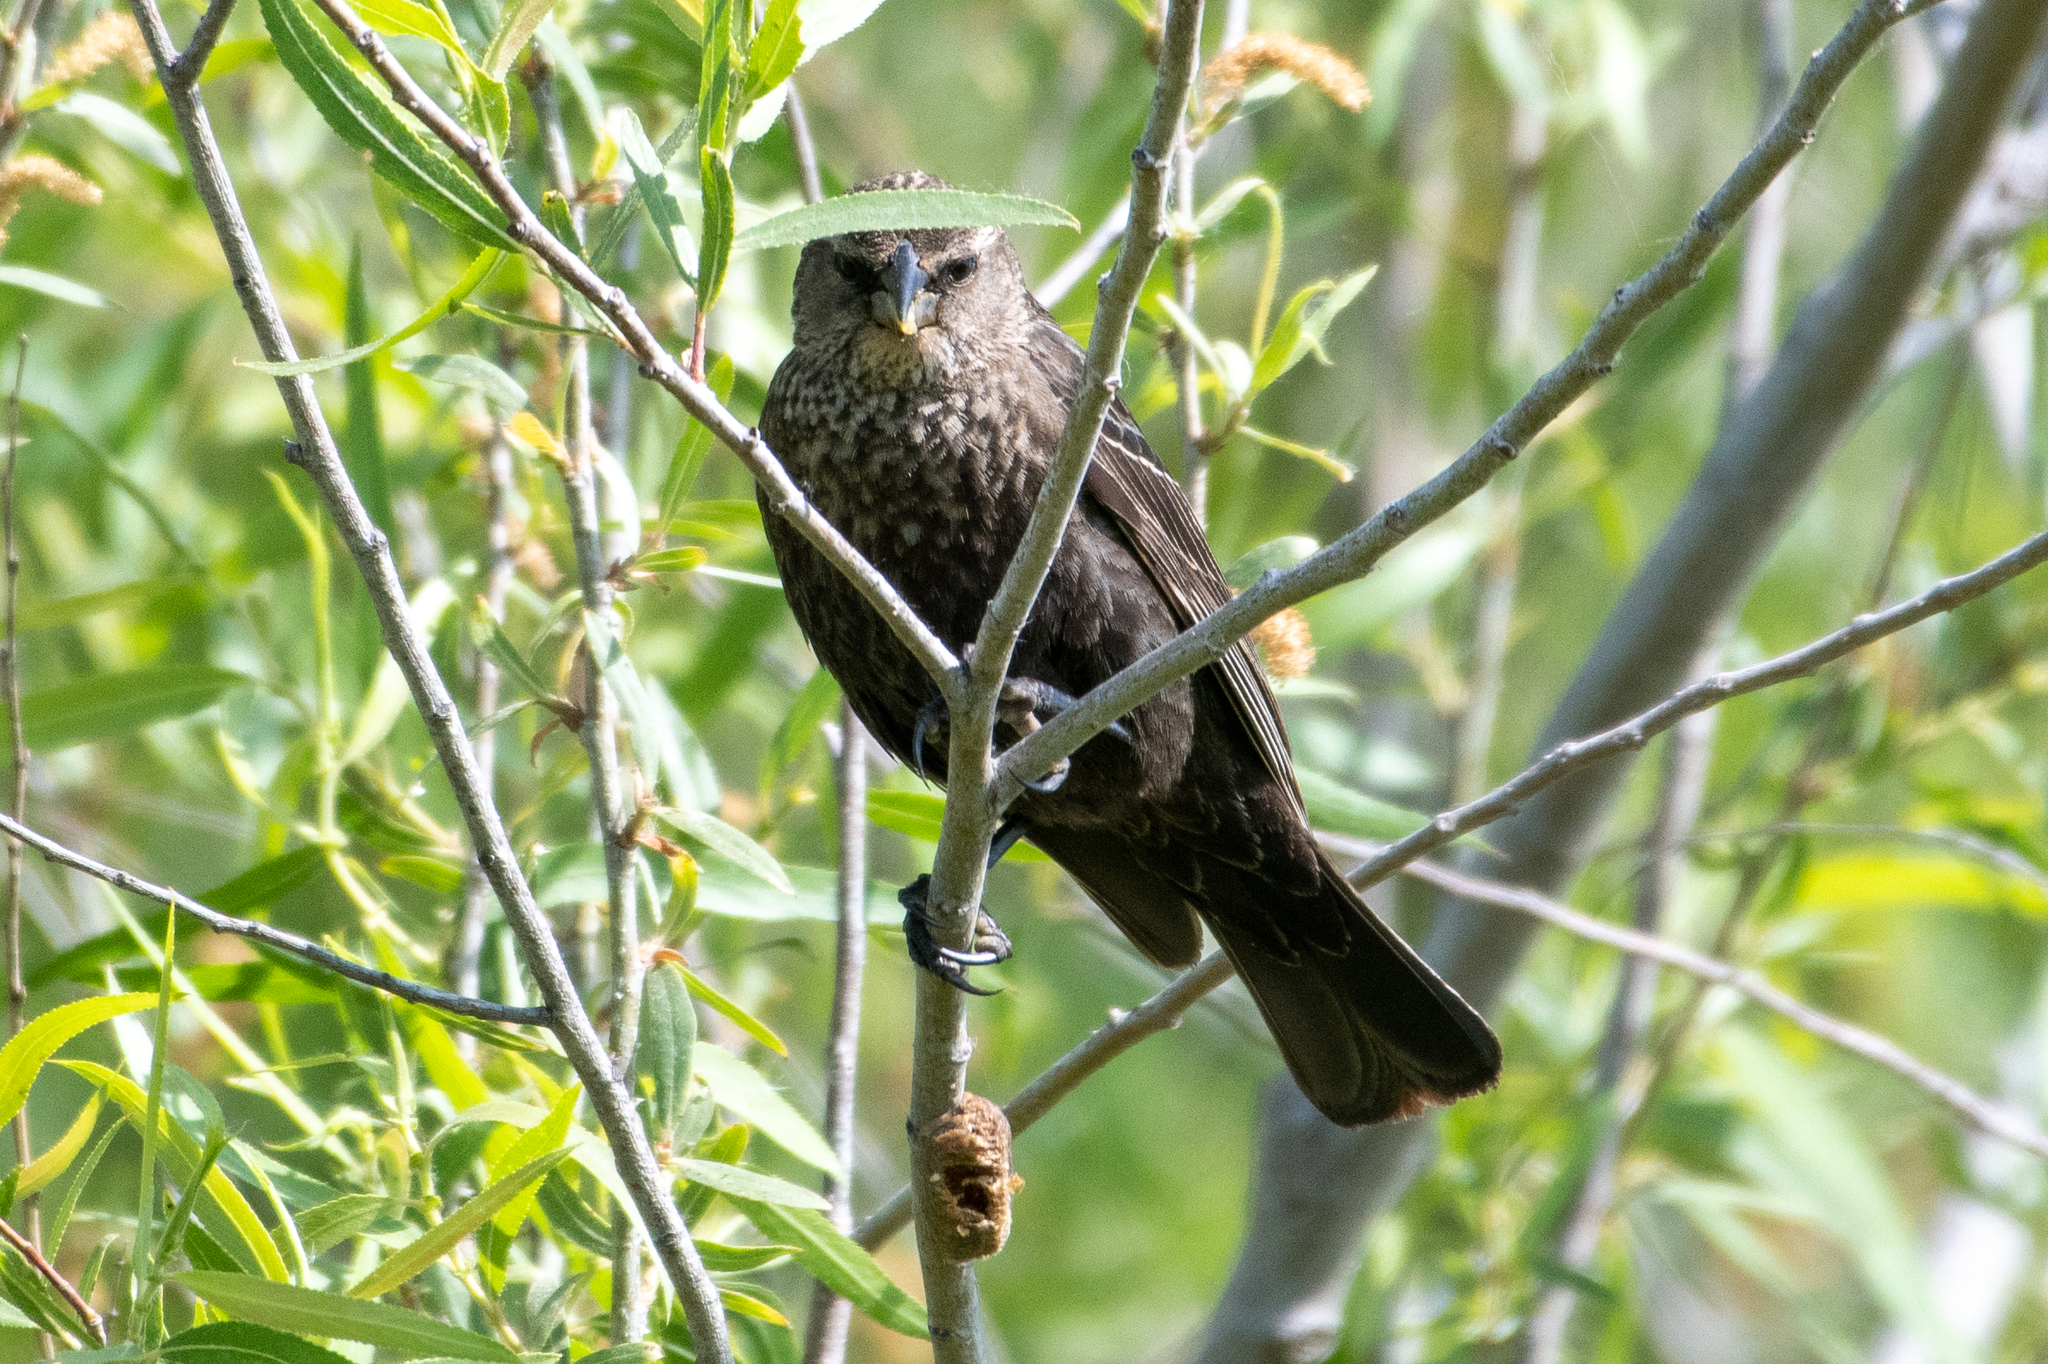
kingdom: Animalia
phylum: Chordata
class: Aves
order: Passeriformes
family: Icteridae
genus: Agelaius
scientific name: Agelaius phoeniceus
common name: Red-winged blackbird
